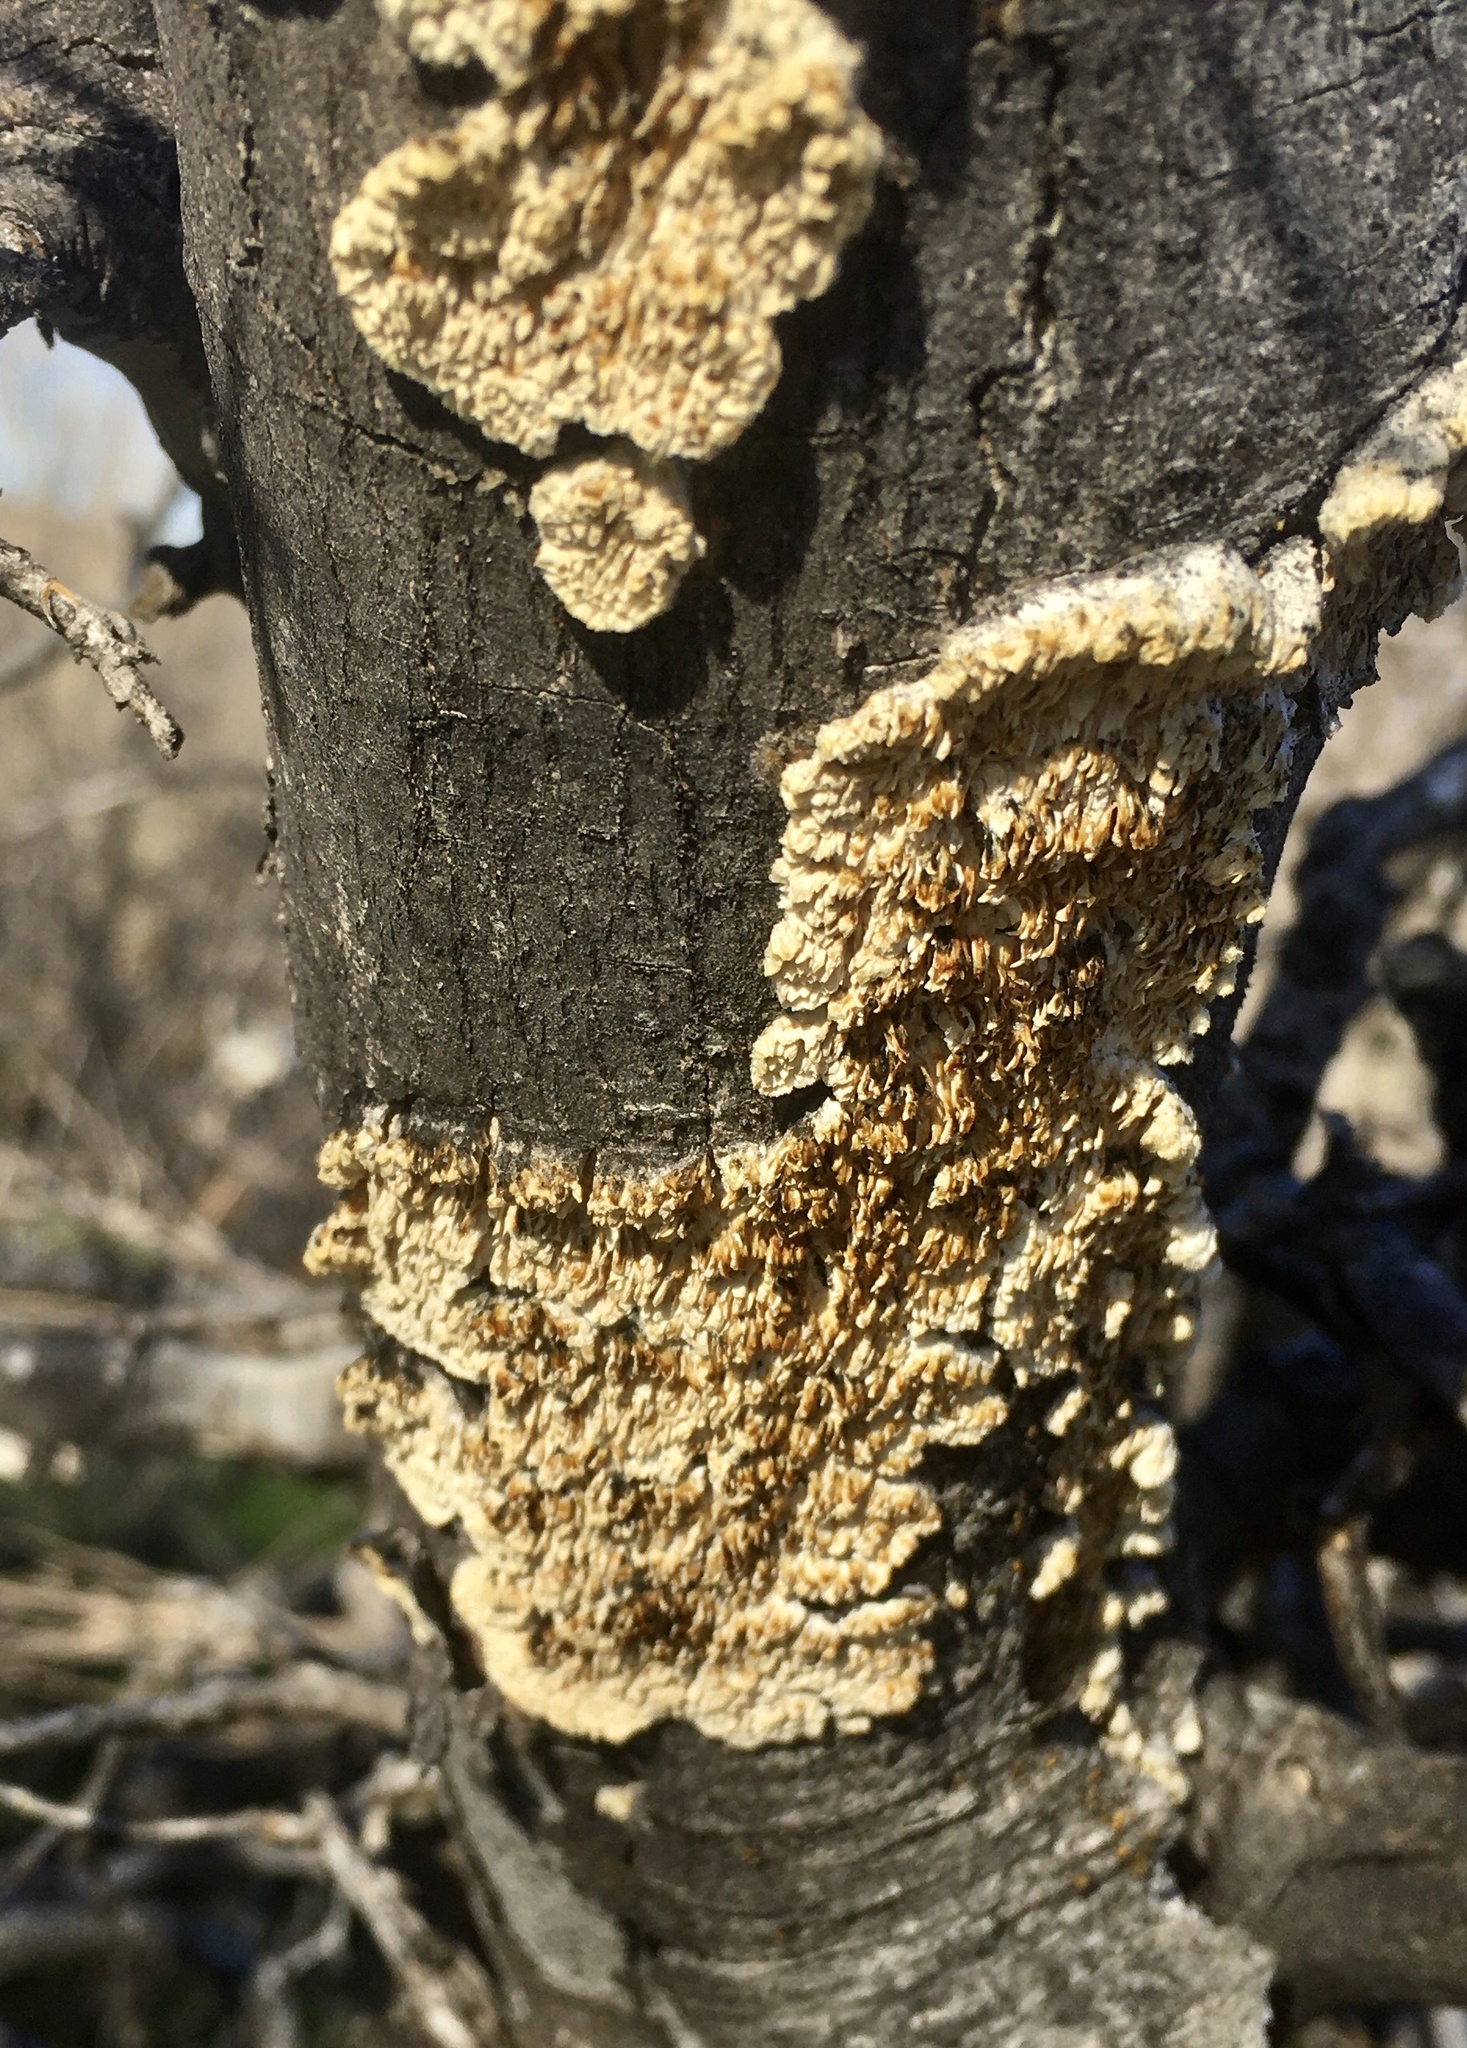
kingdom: Fungi
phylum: Basidiomycota
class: Agaricomycetes
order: Polyporales
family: Irpicaceae
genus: Irpex
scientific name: Irpex lacteus
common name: Milk-white toothed polypore
